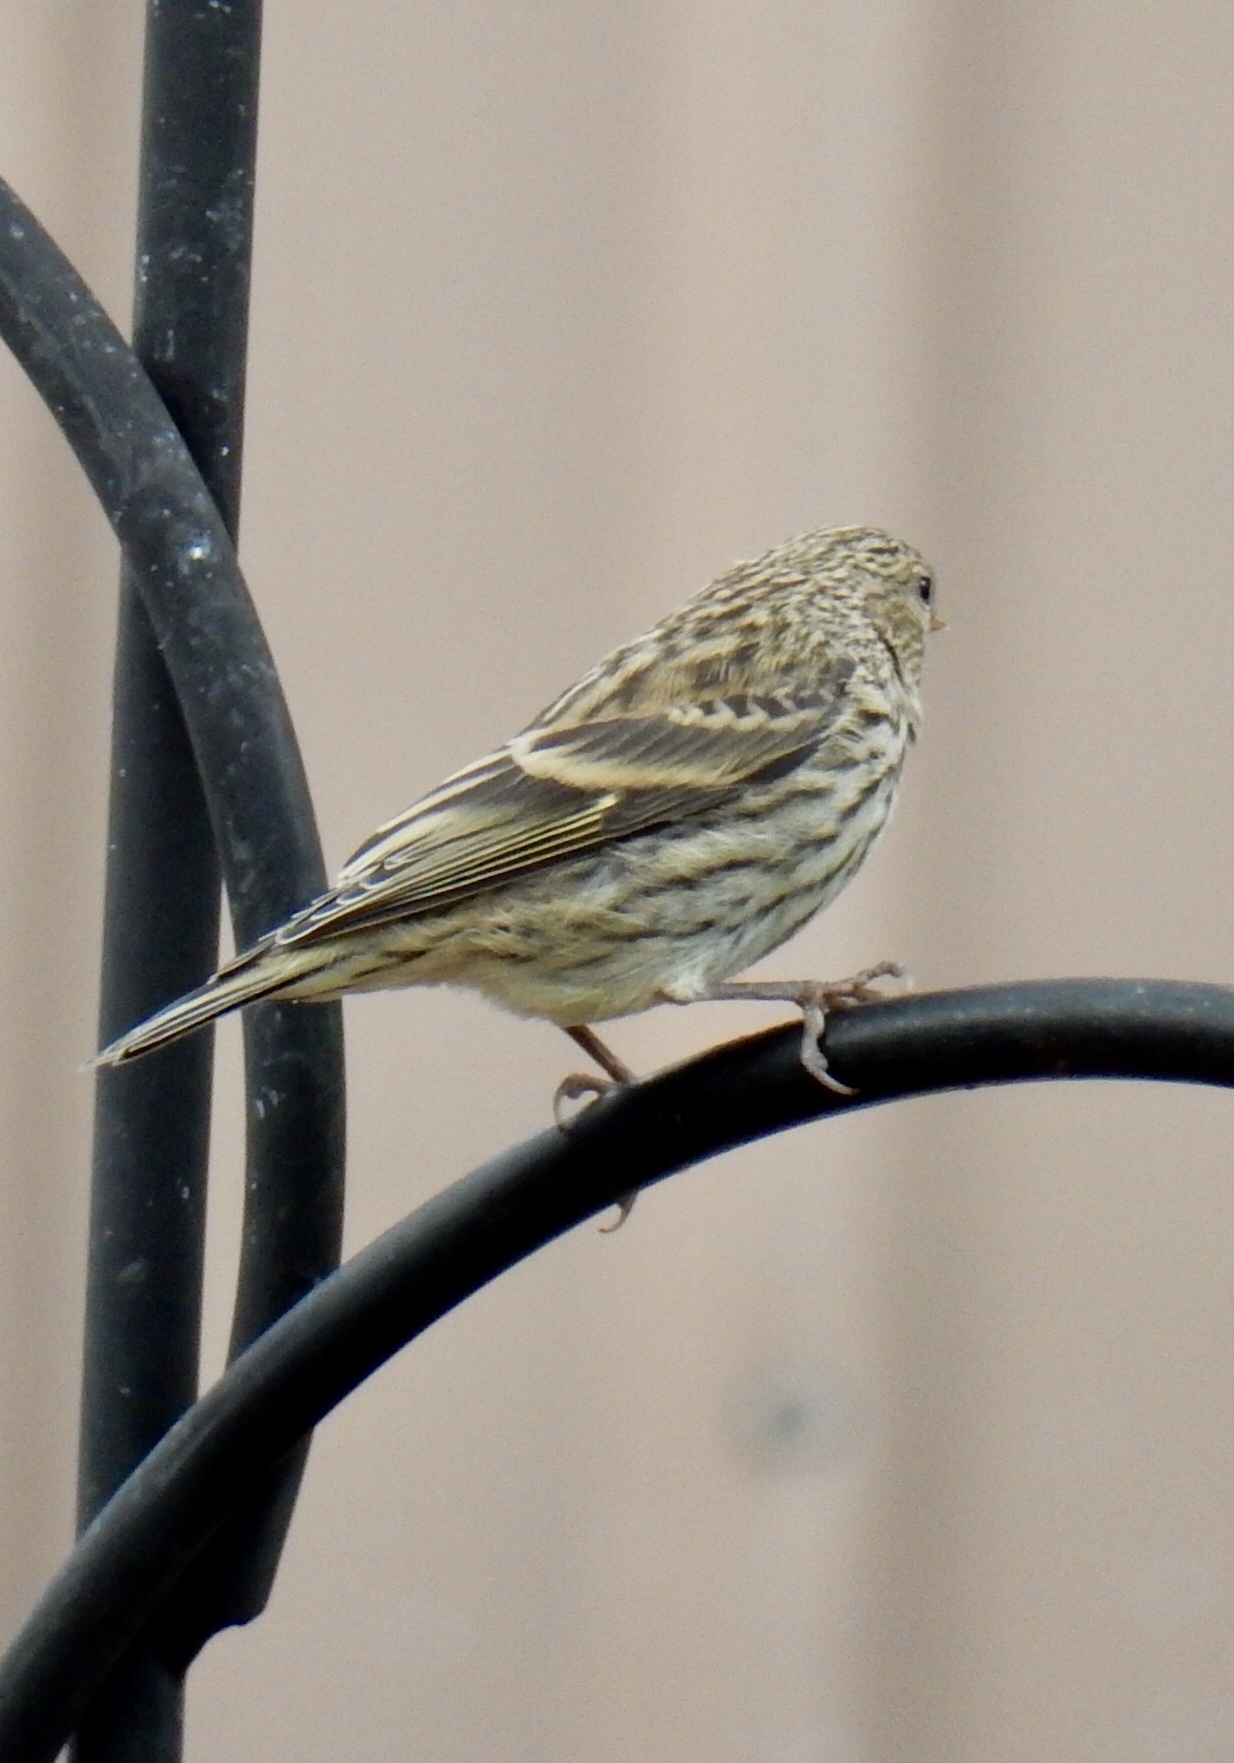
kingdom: Animalia
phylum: Chordata
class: Aves
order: Passeriformes
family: Fringillidae
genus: Spinus
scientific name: Spinus pinus
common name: Pine siskin
